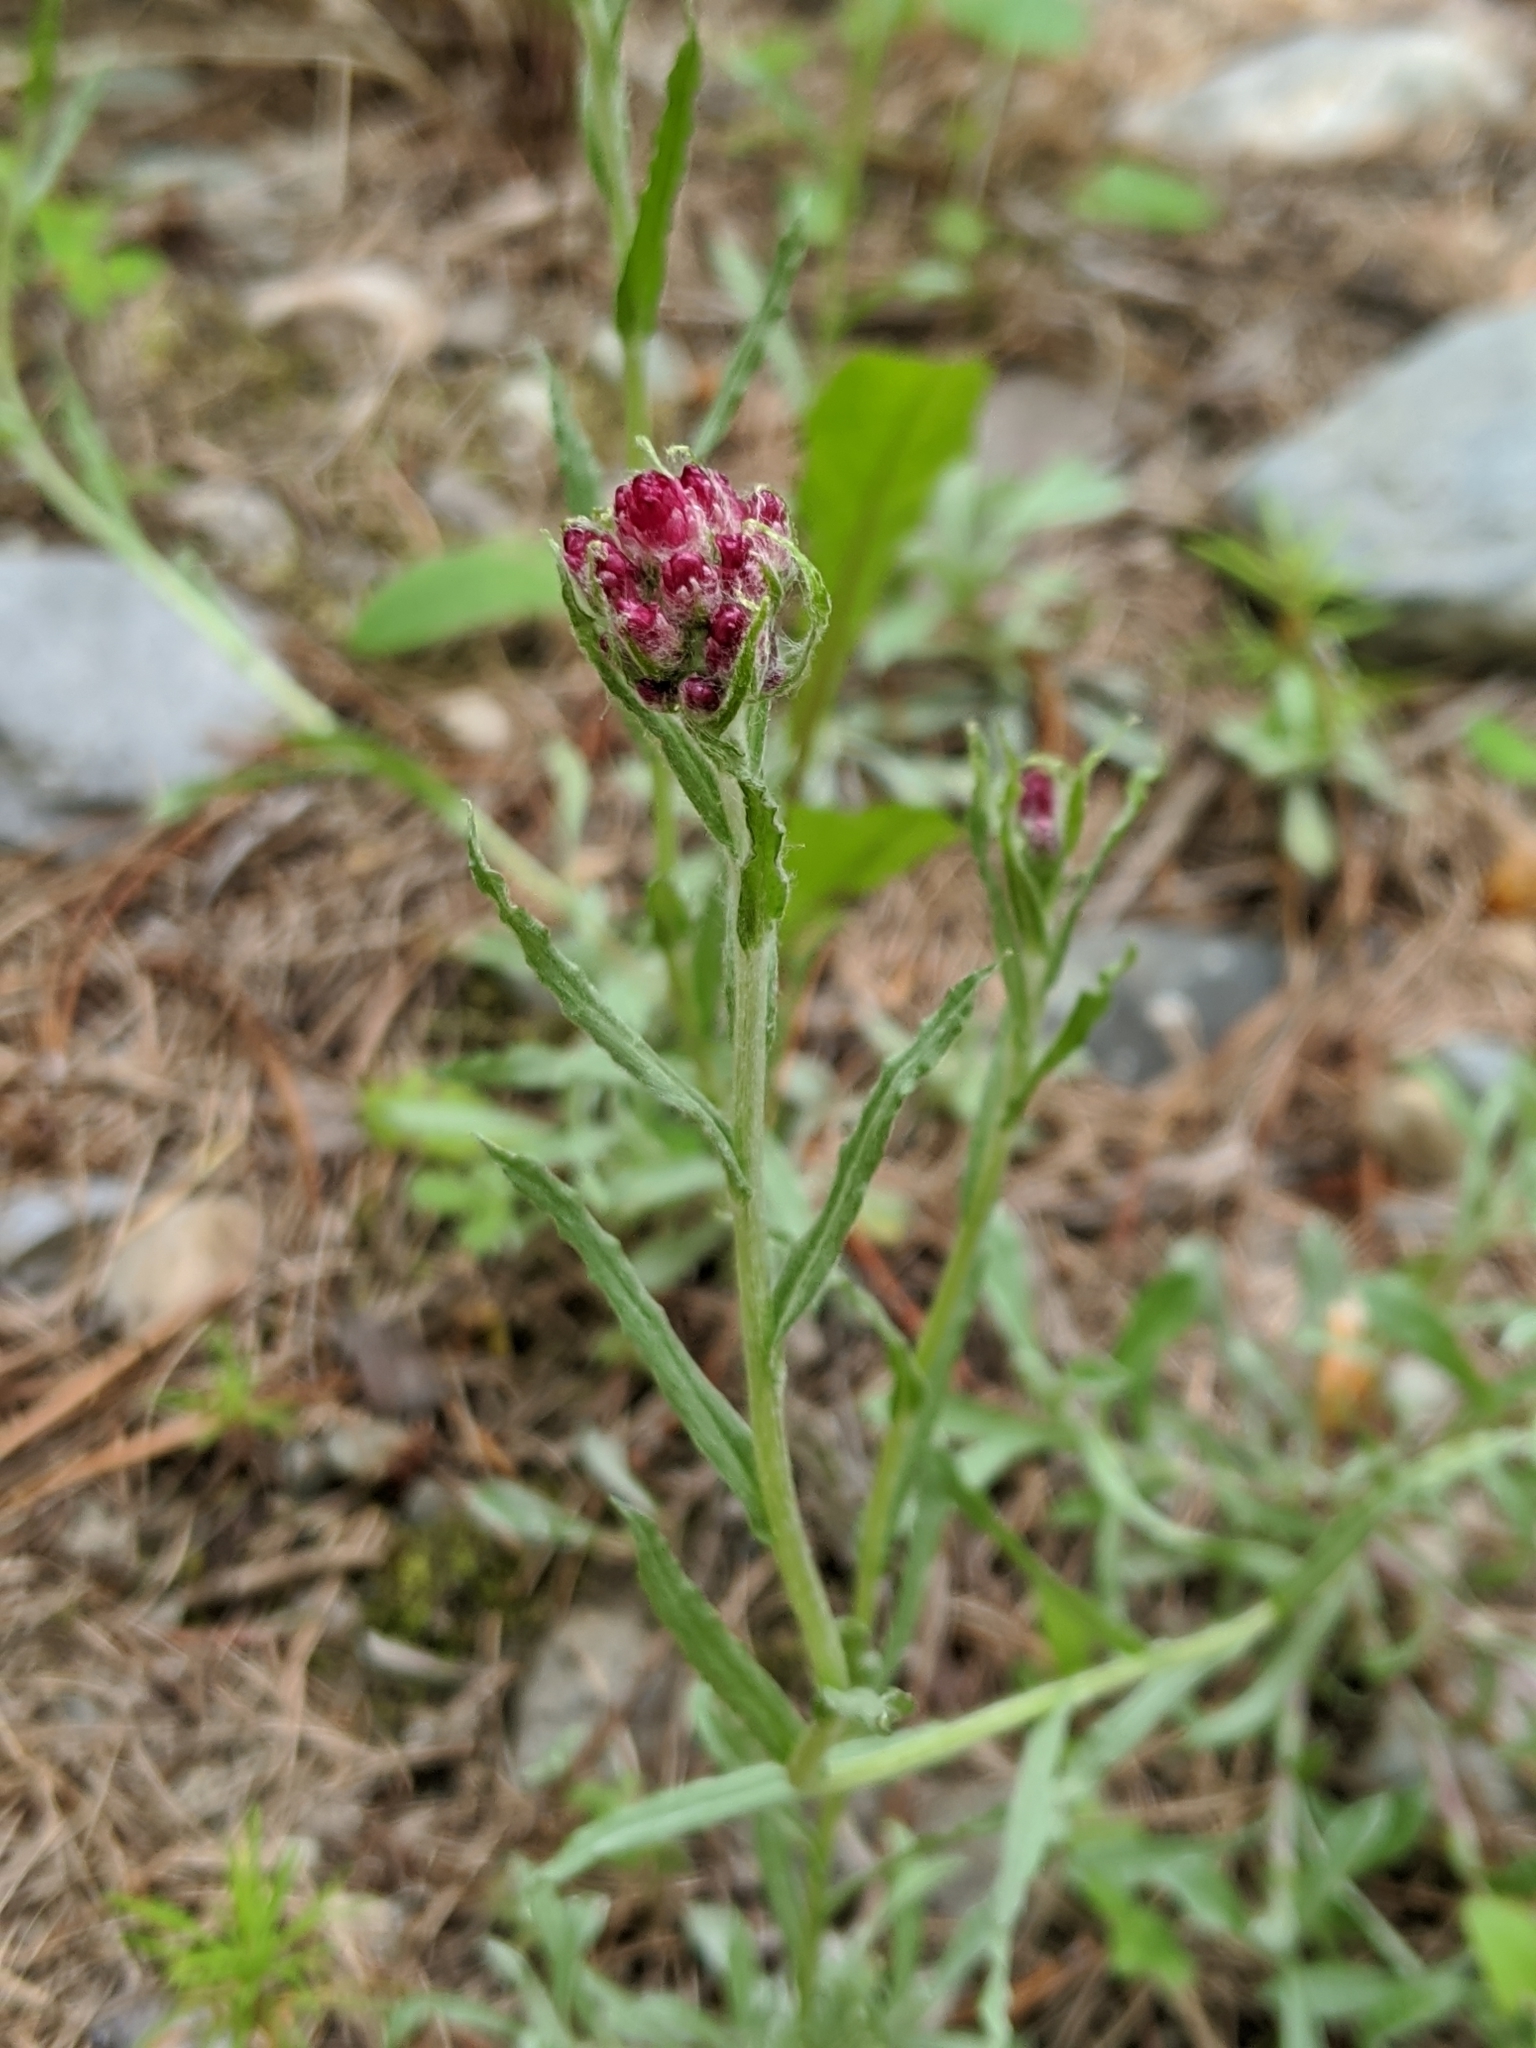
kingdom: Plantae
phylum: Tracheophyta
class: Magnoliopsida
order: Asterales
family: Asteraceae
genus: Antennaria
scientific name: Antennaria rosea
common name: Rosy pussytoes
